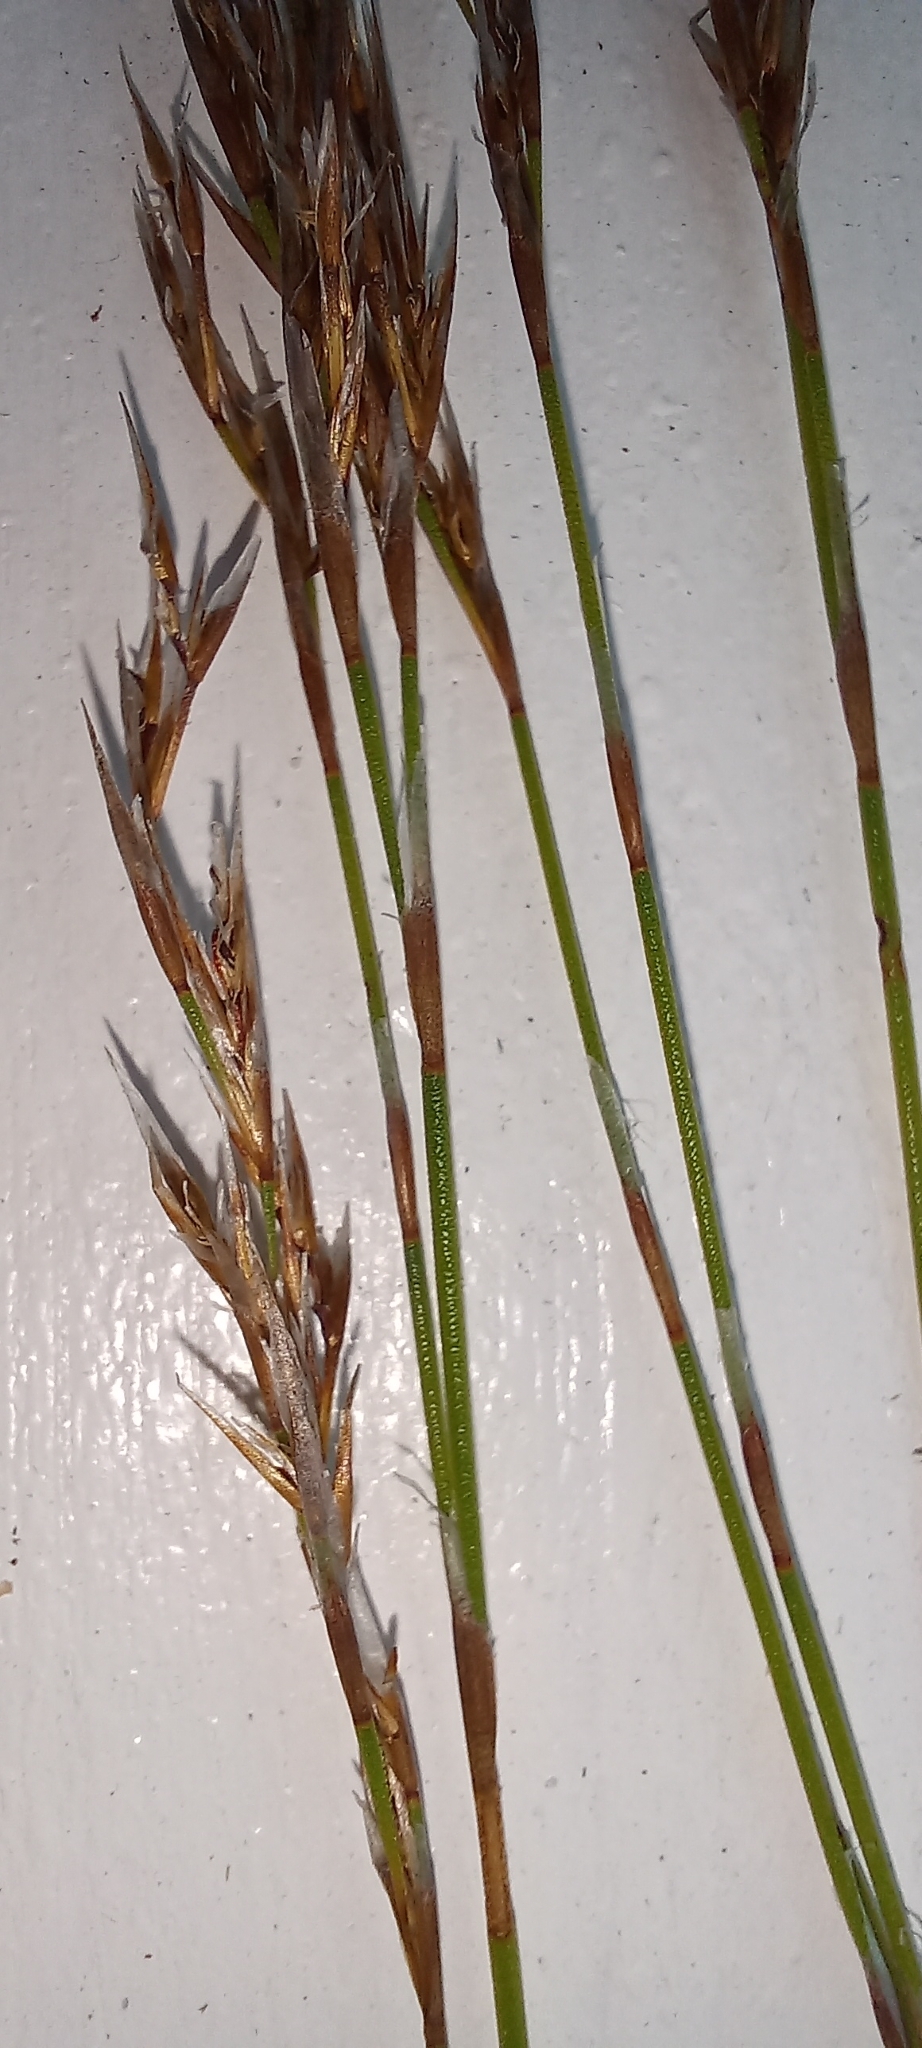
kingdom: Plantae
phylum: Tracheophyta
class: Liliopsida
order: Poales
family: Restionaceae
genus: Restio
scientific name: Restio festuciformis
